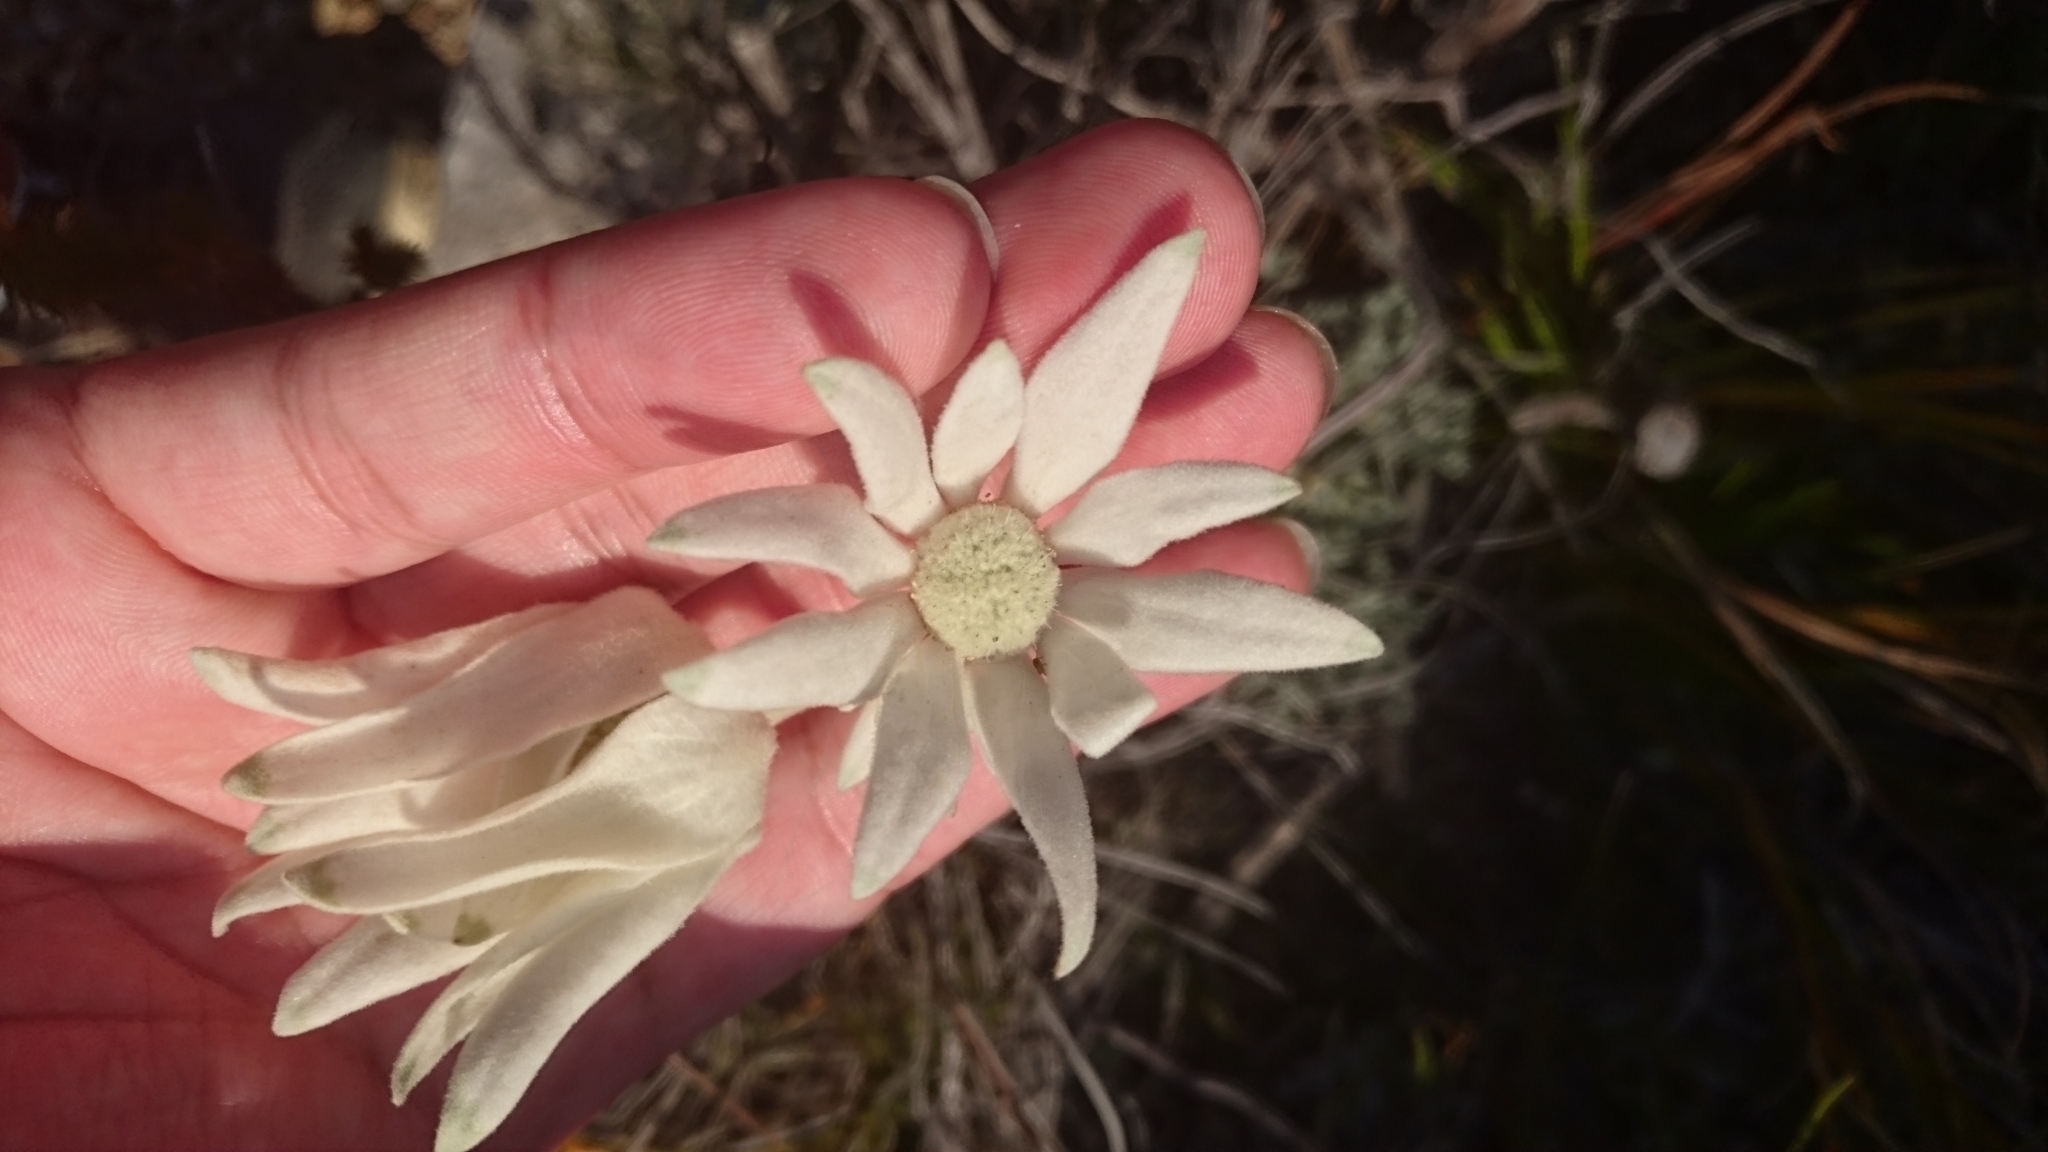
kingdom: Plantae
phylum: Tracheophyta
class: Magnoliopsida
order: Apiales
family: Apiaceae
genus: Actinotus
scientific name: Actinotus helianthi
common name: Flannel-flower
